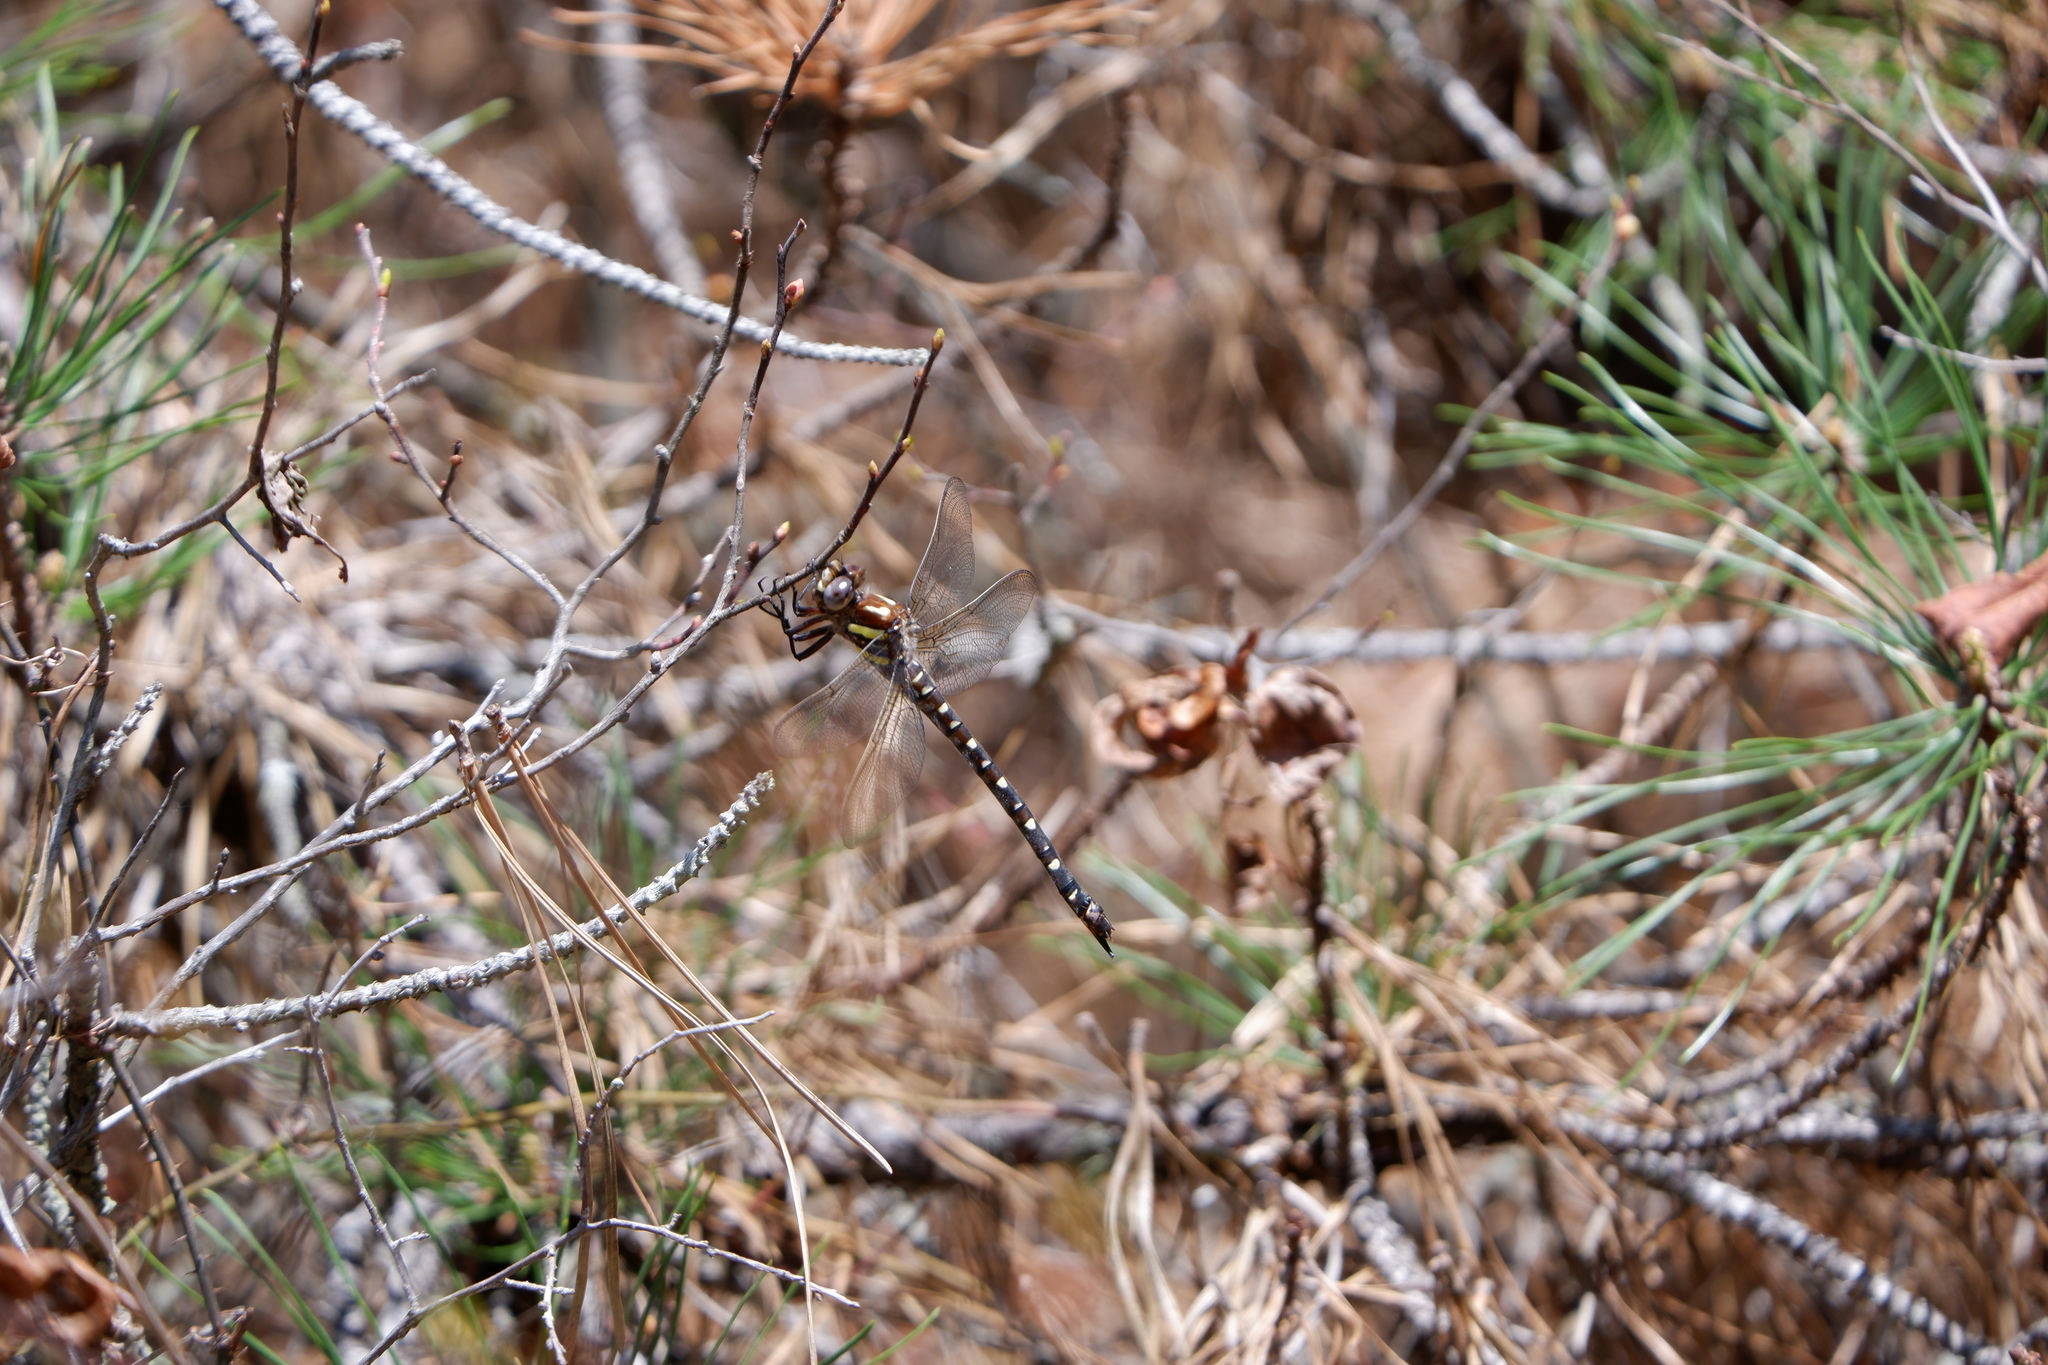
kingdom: Animalia
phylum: Arthropoda
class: Insecta
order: Odonata
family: Cordulegastridae
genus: Cordulegaster
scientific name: Cordulegaster maculata
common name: Twin-spotted spiketail
